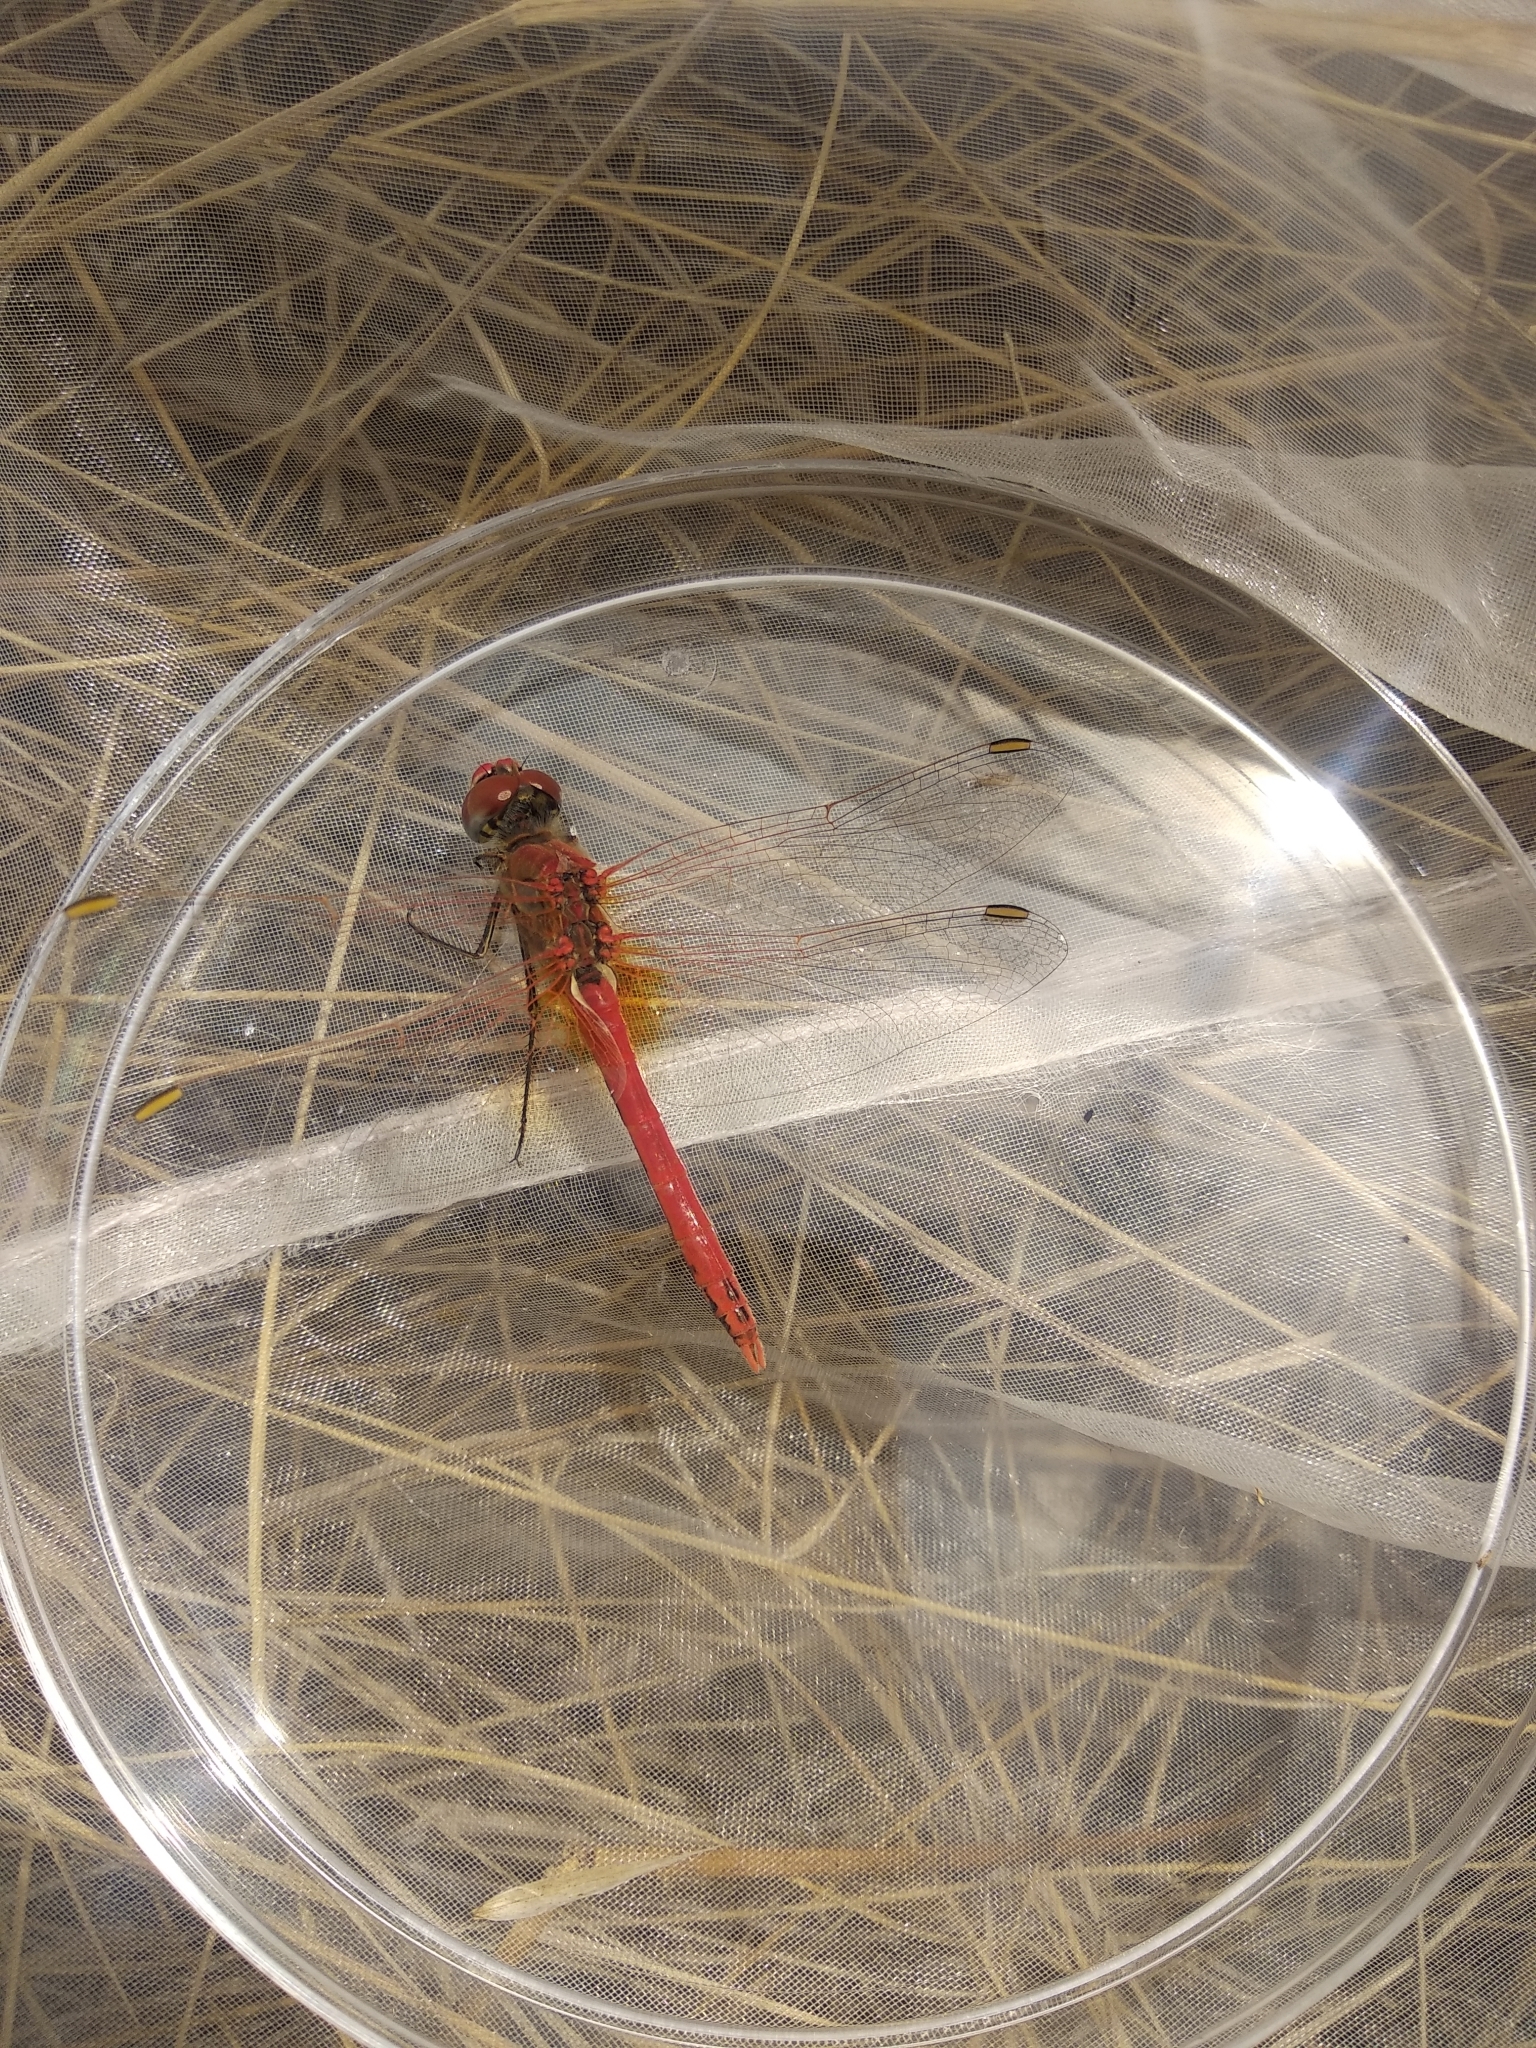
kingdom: Animalia
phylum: Arthropoda
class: Insecta
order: Odonata
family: Libellulidae
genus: Sympetrum
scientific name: Sympetrum fonscolombii
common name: Red-veined darter
